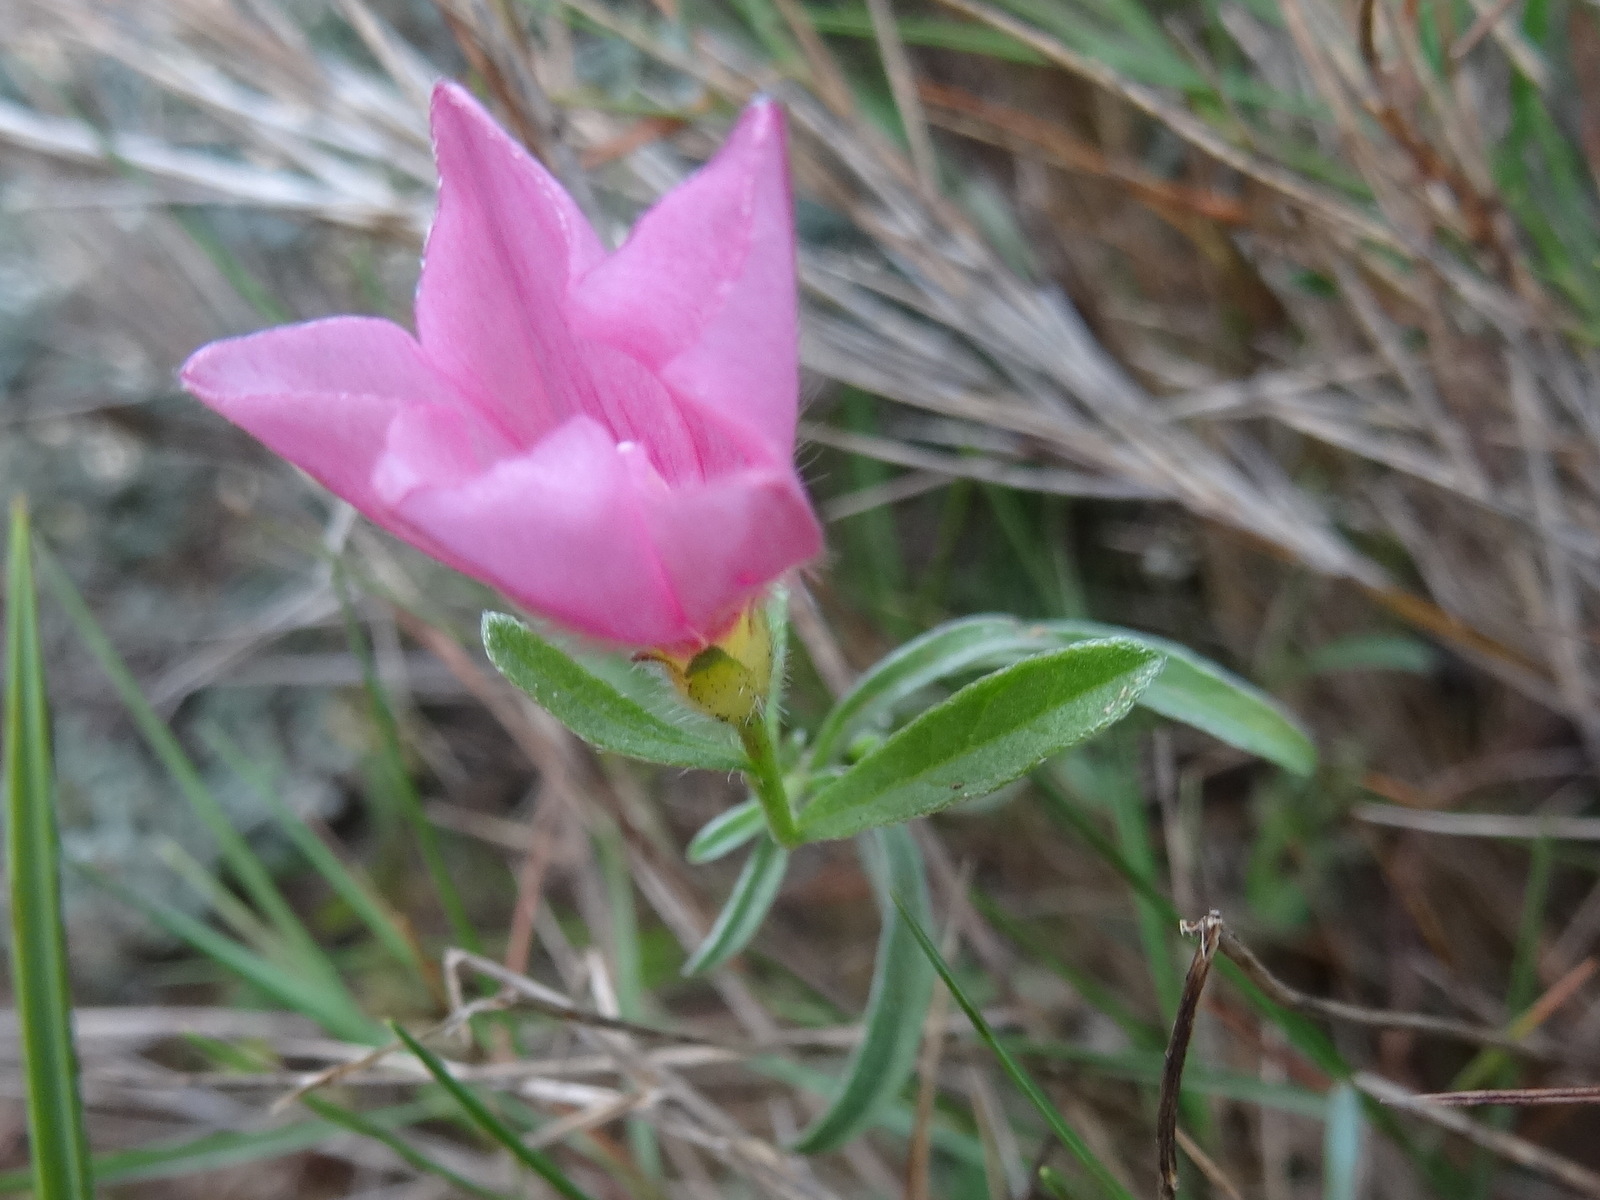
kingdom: Plantae
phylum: Tracheophyta
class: Magnoliopsida
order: Solanales
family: Convolvulaceae
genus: Convolvulus
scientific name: Convolvulus cantabrica
